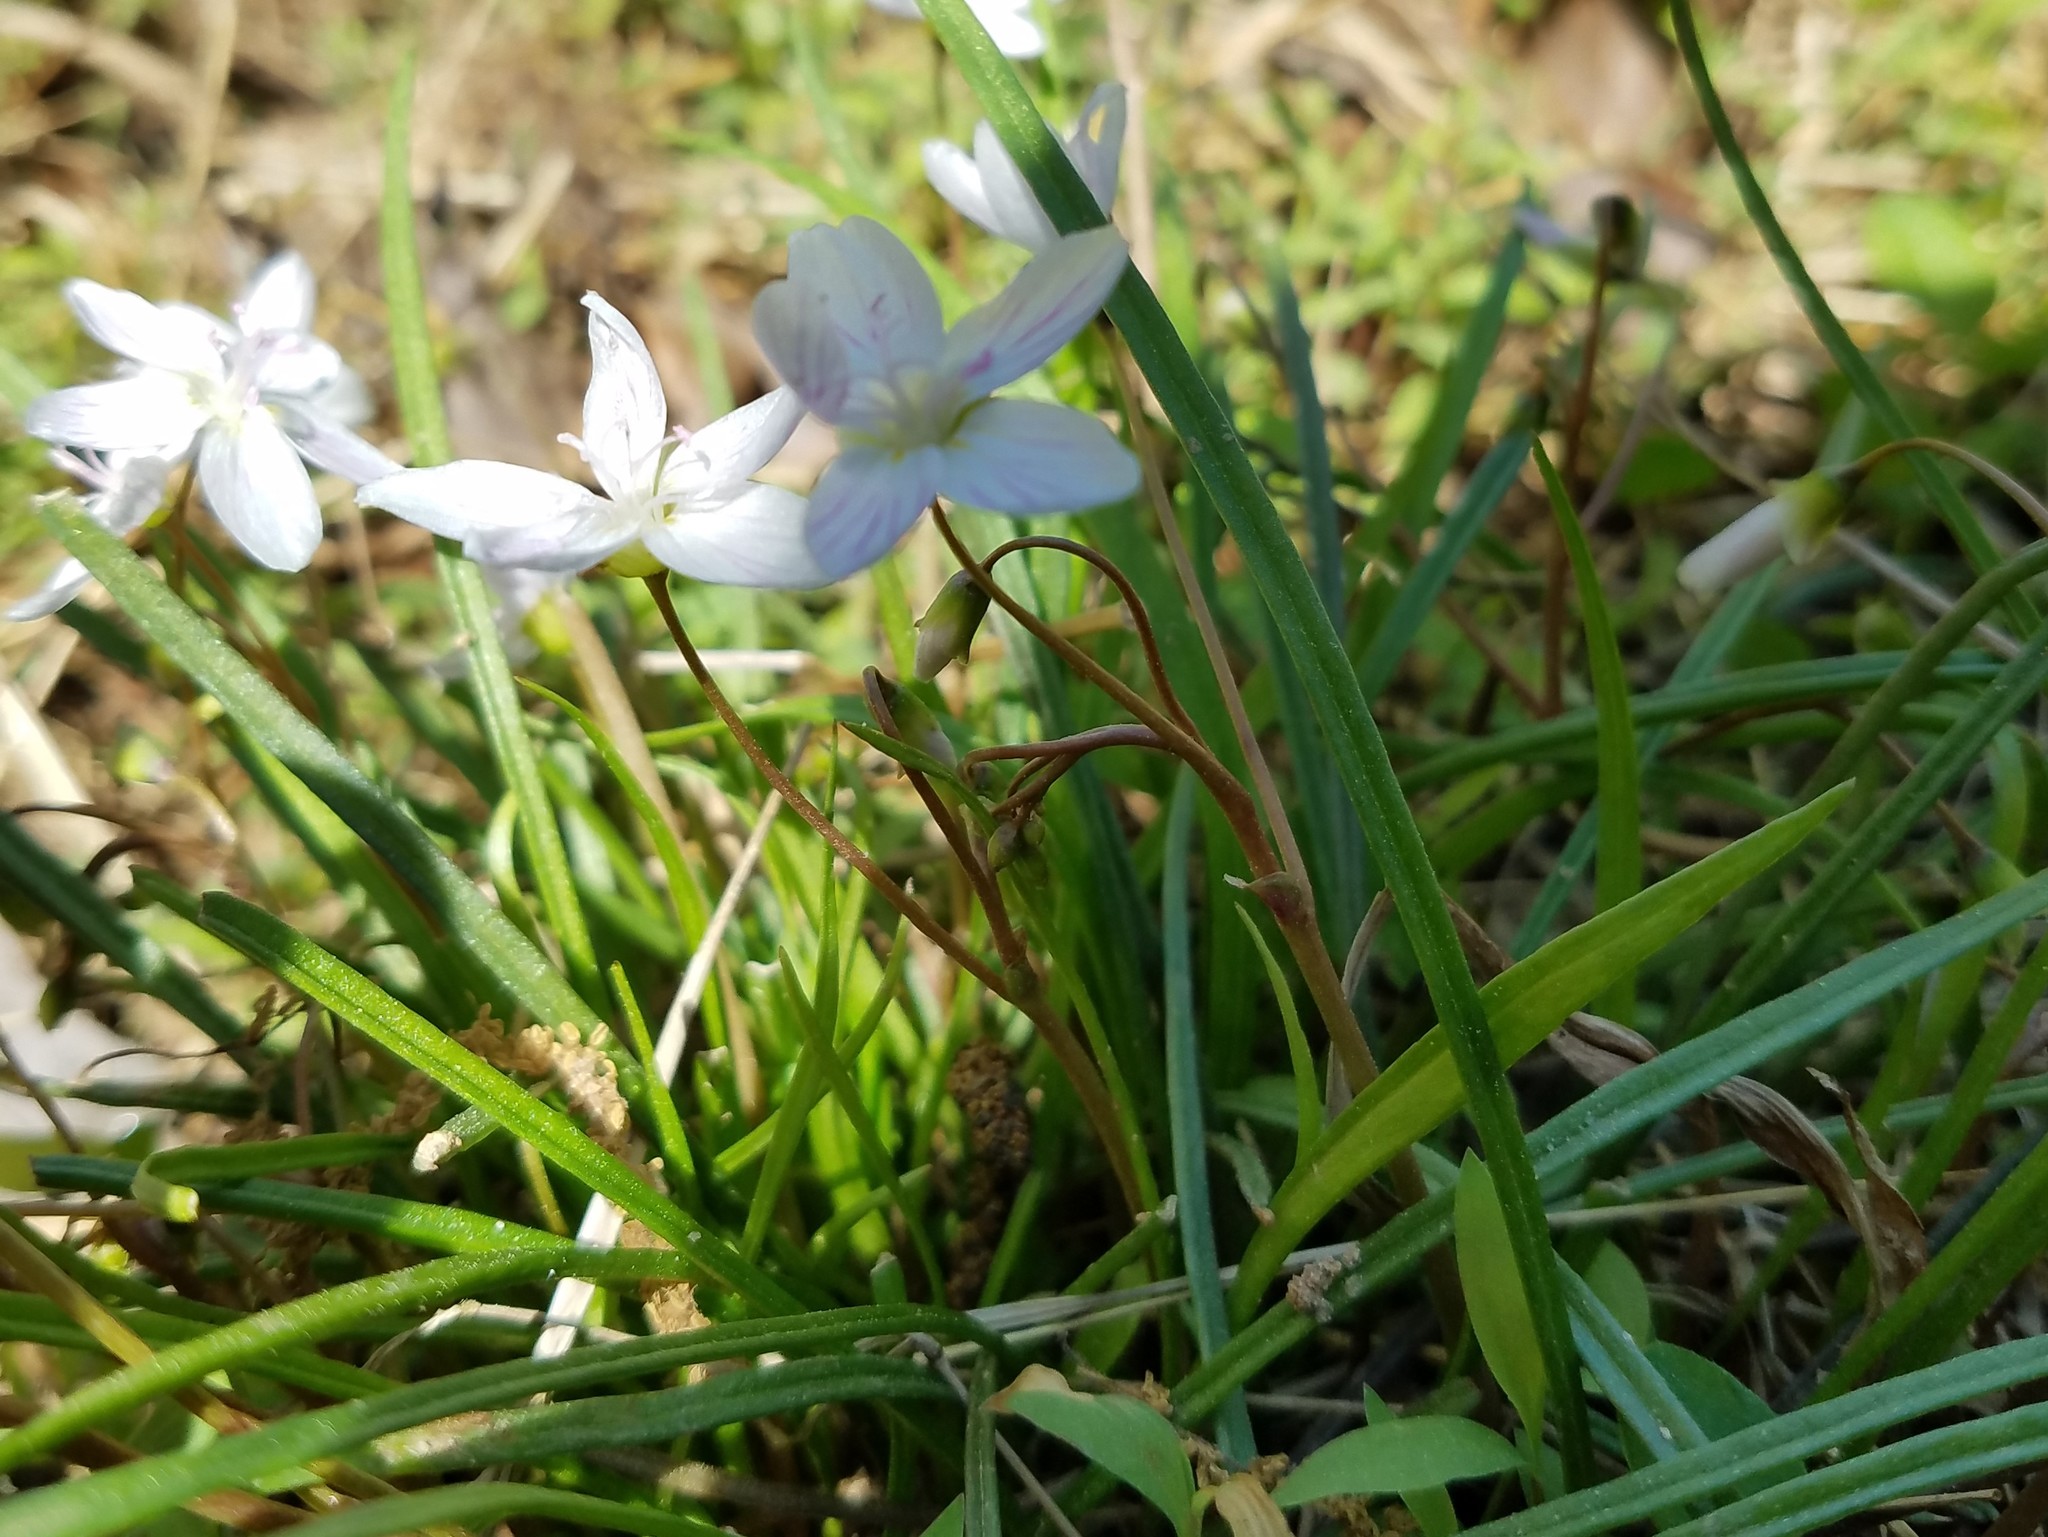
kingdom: Plantae
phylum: Tracheophyta
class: Magnoliopsida
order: Caryophyllales
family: Montiaceae
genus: Claytonia
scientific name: Claytonia virginica
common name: Virginia springbeauty
